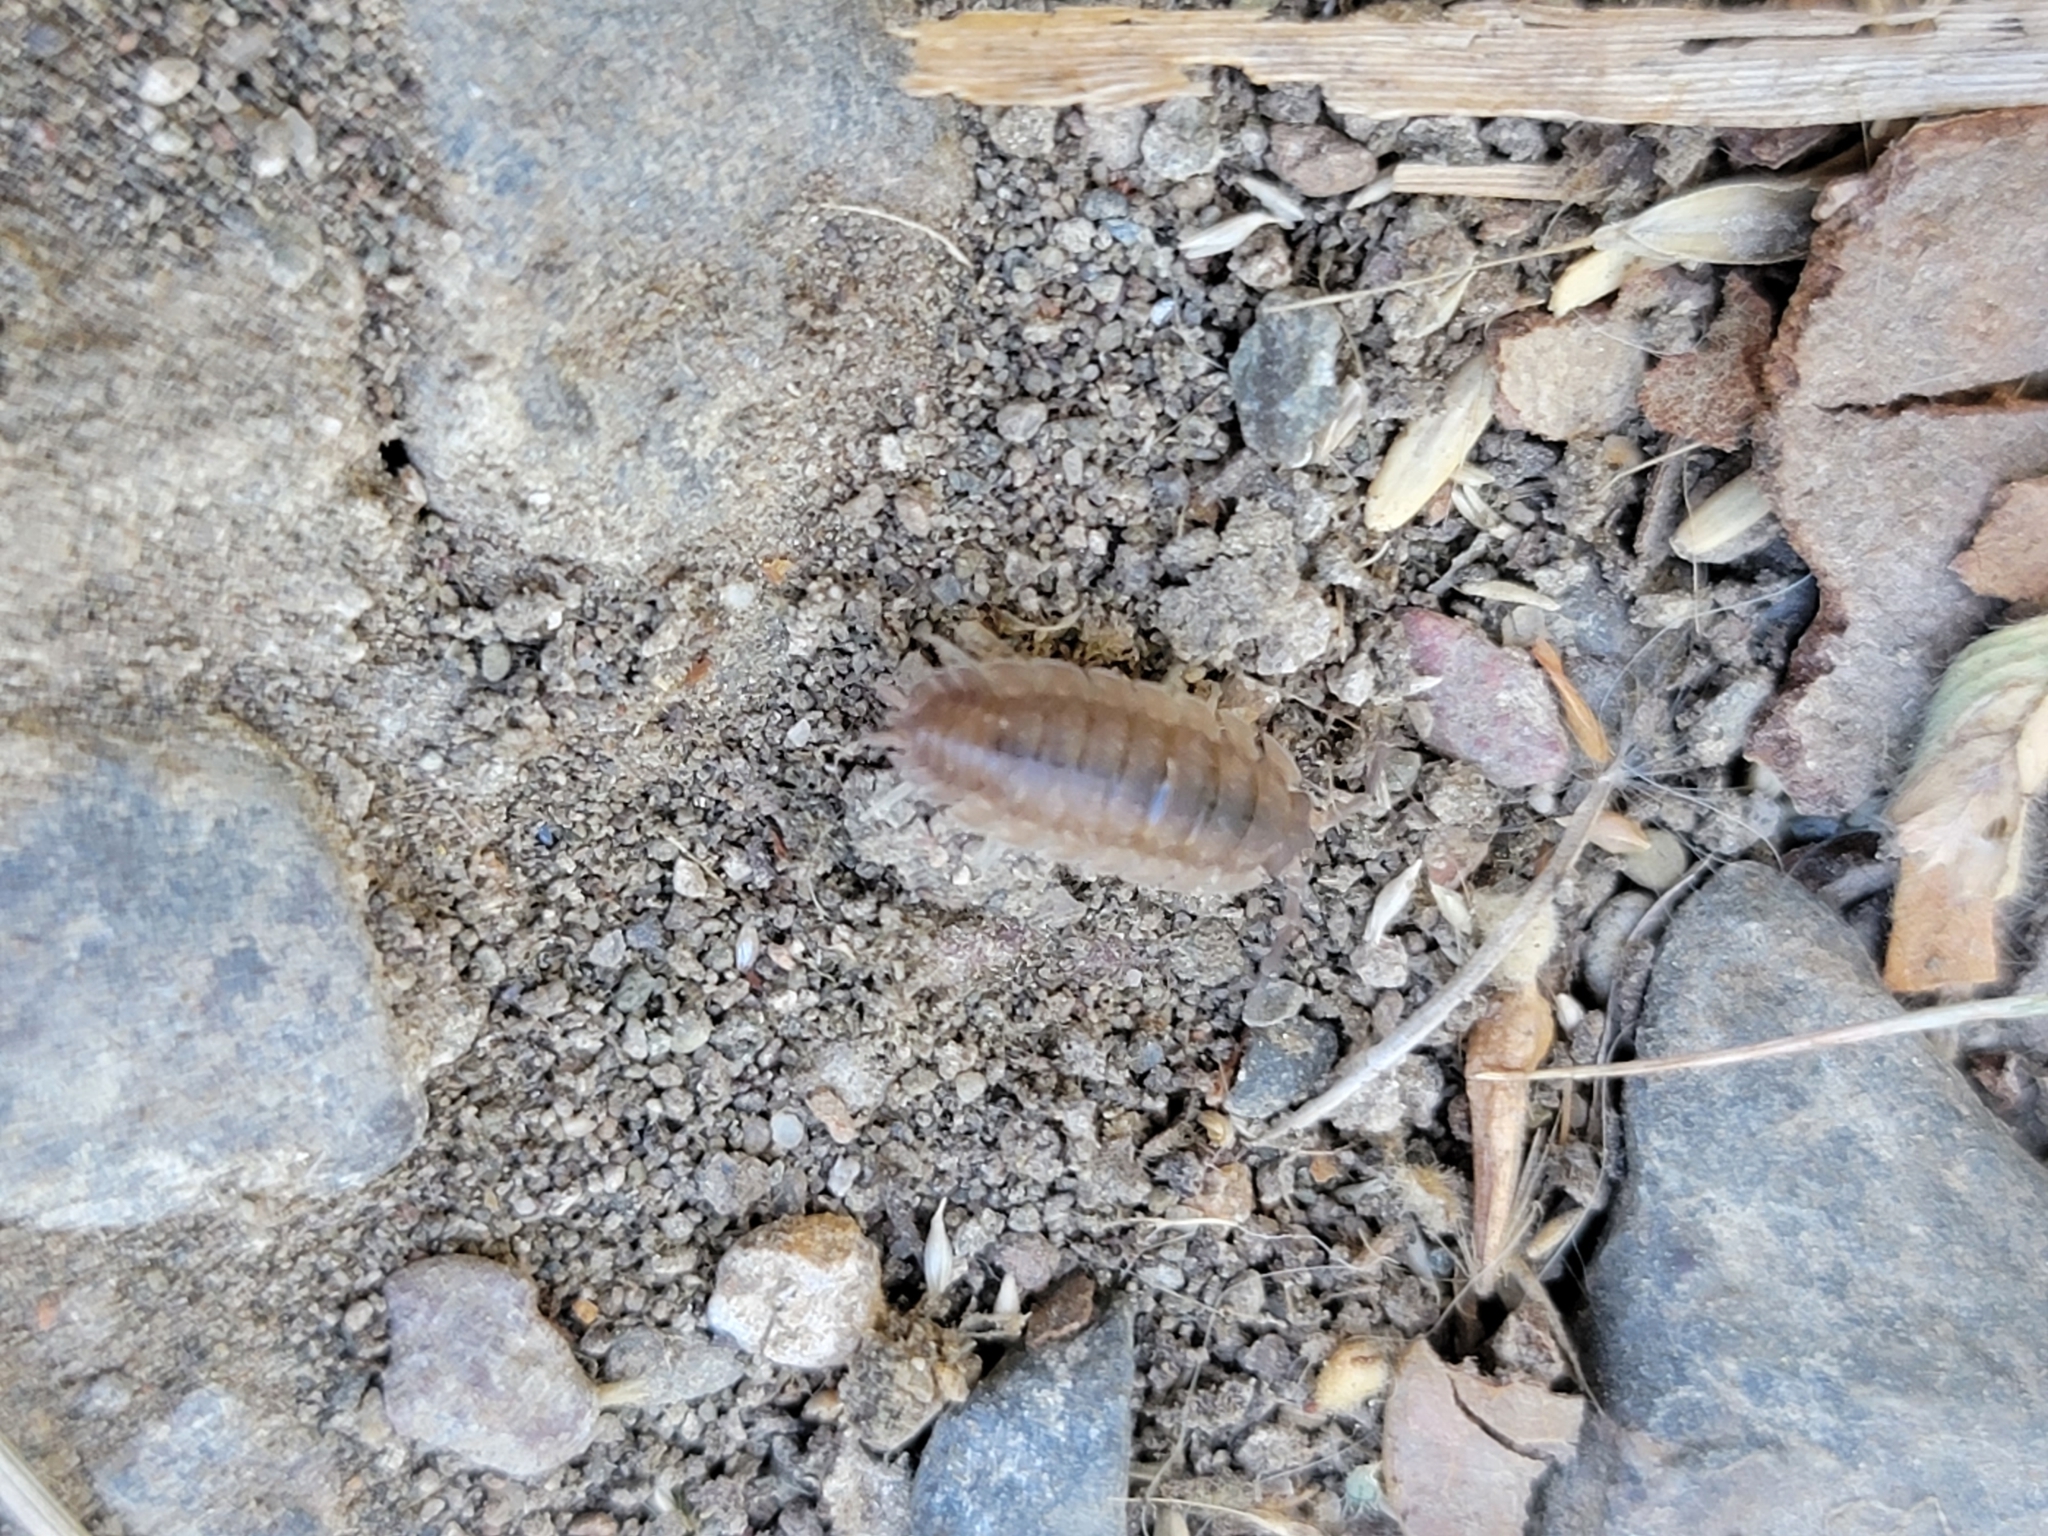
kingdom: Animalia
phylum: Arthropoda
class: Malacostraca
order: Isopoda
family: Porcellionidae
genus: Porcellio
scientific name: Porcellio scaber
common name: Common rough woodlouse
